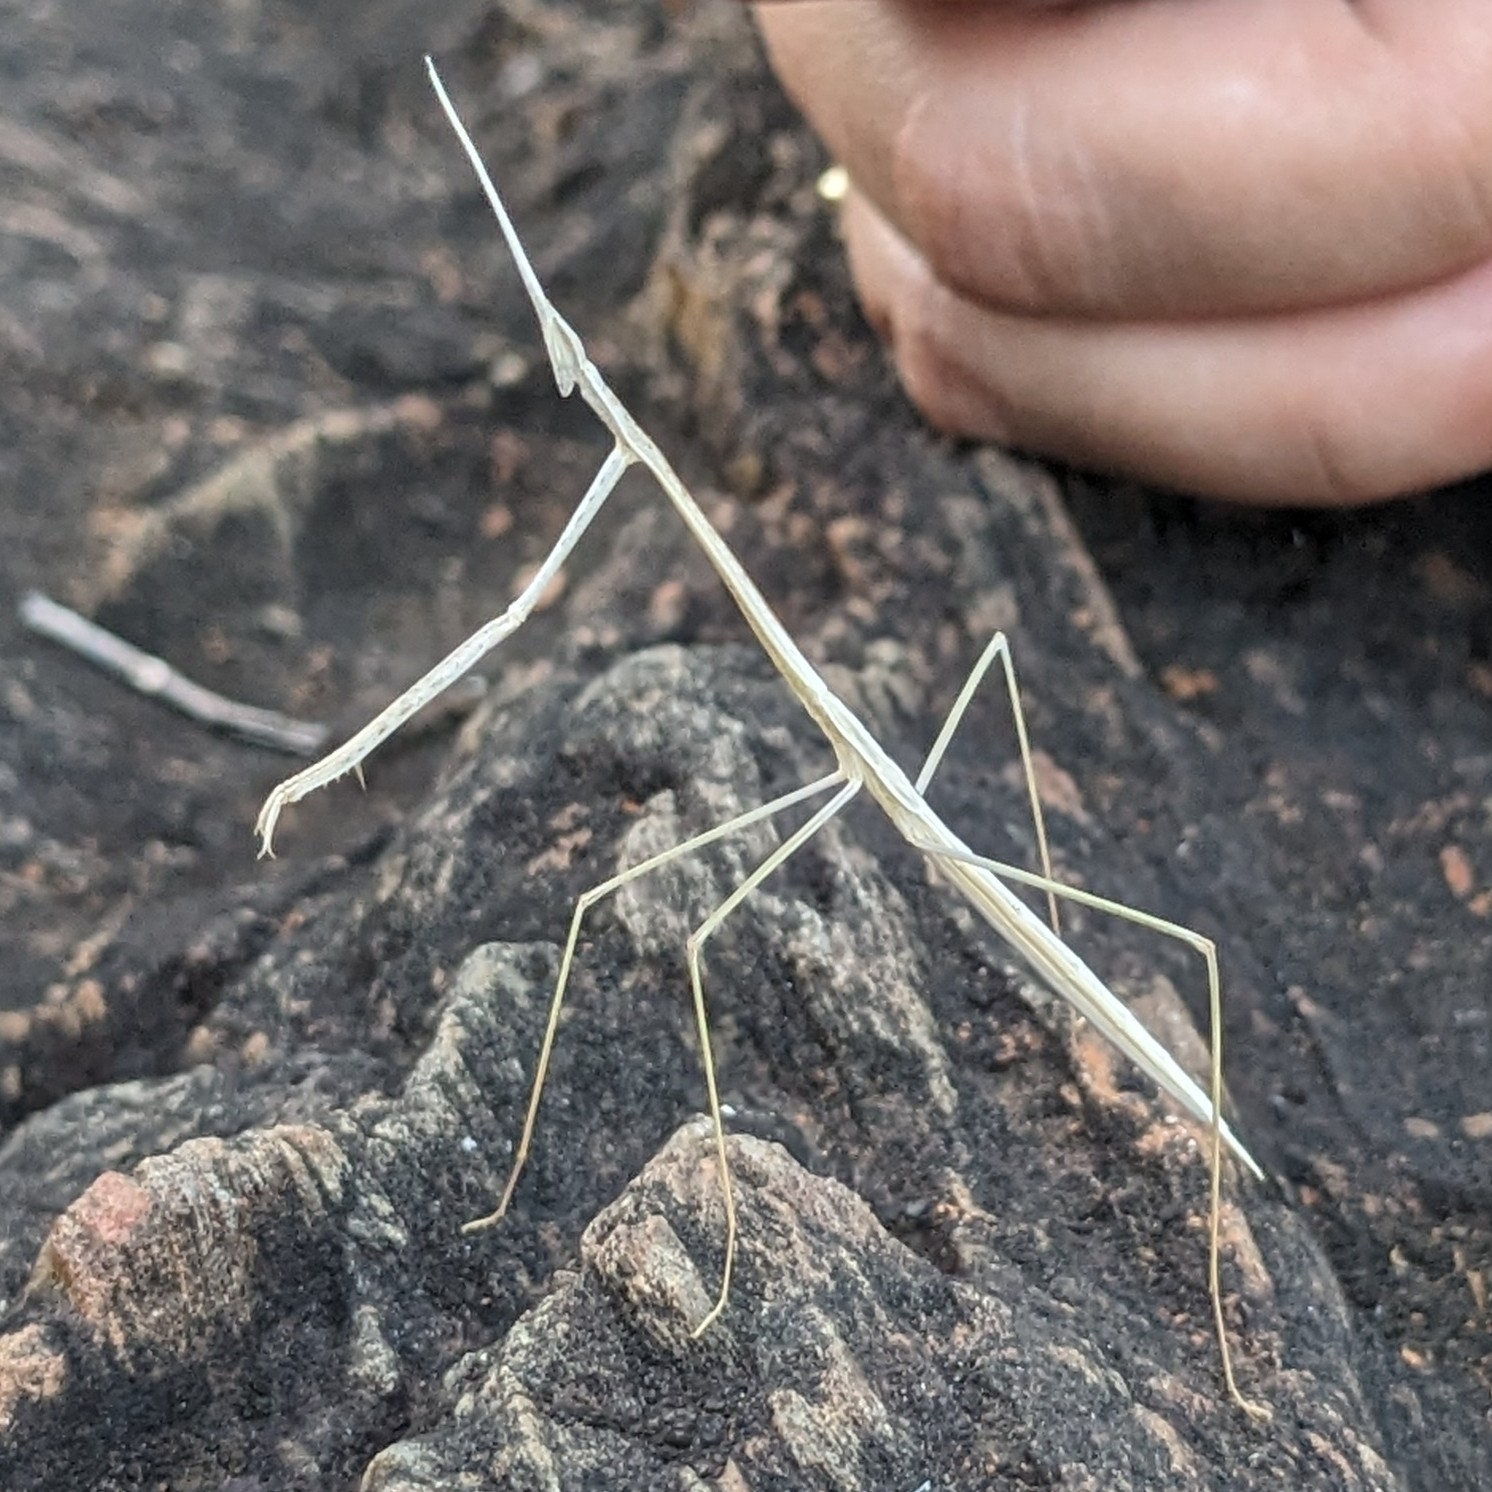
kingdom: Animalia
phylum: Arthropoda
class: Insecta
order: Mantodea
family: Eremiaphilidae
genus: Schizocephala
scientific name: Schizocephala bicornis
